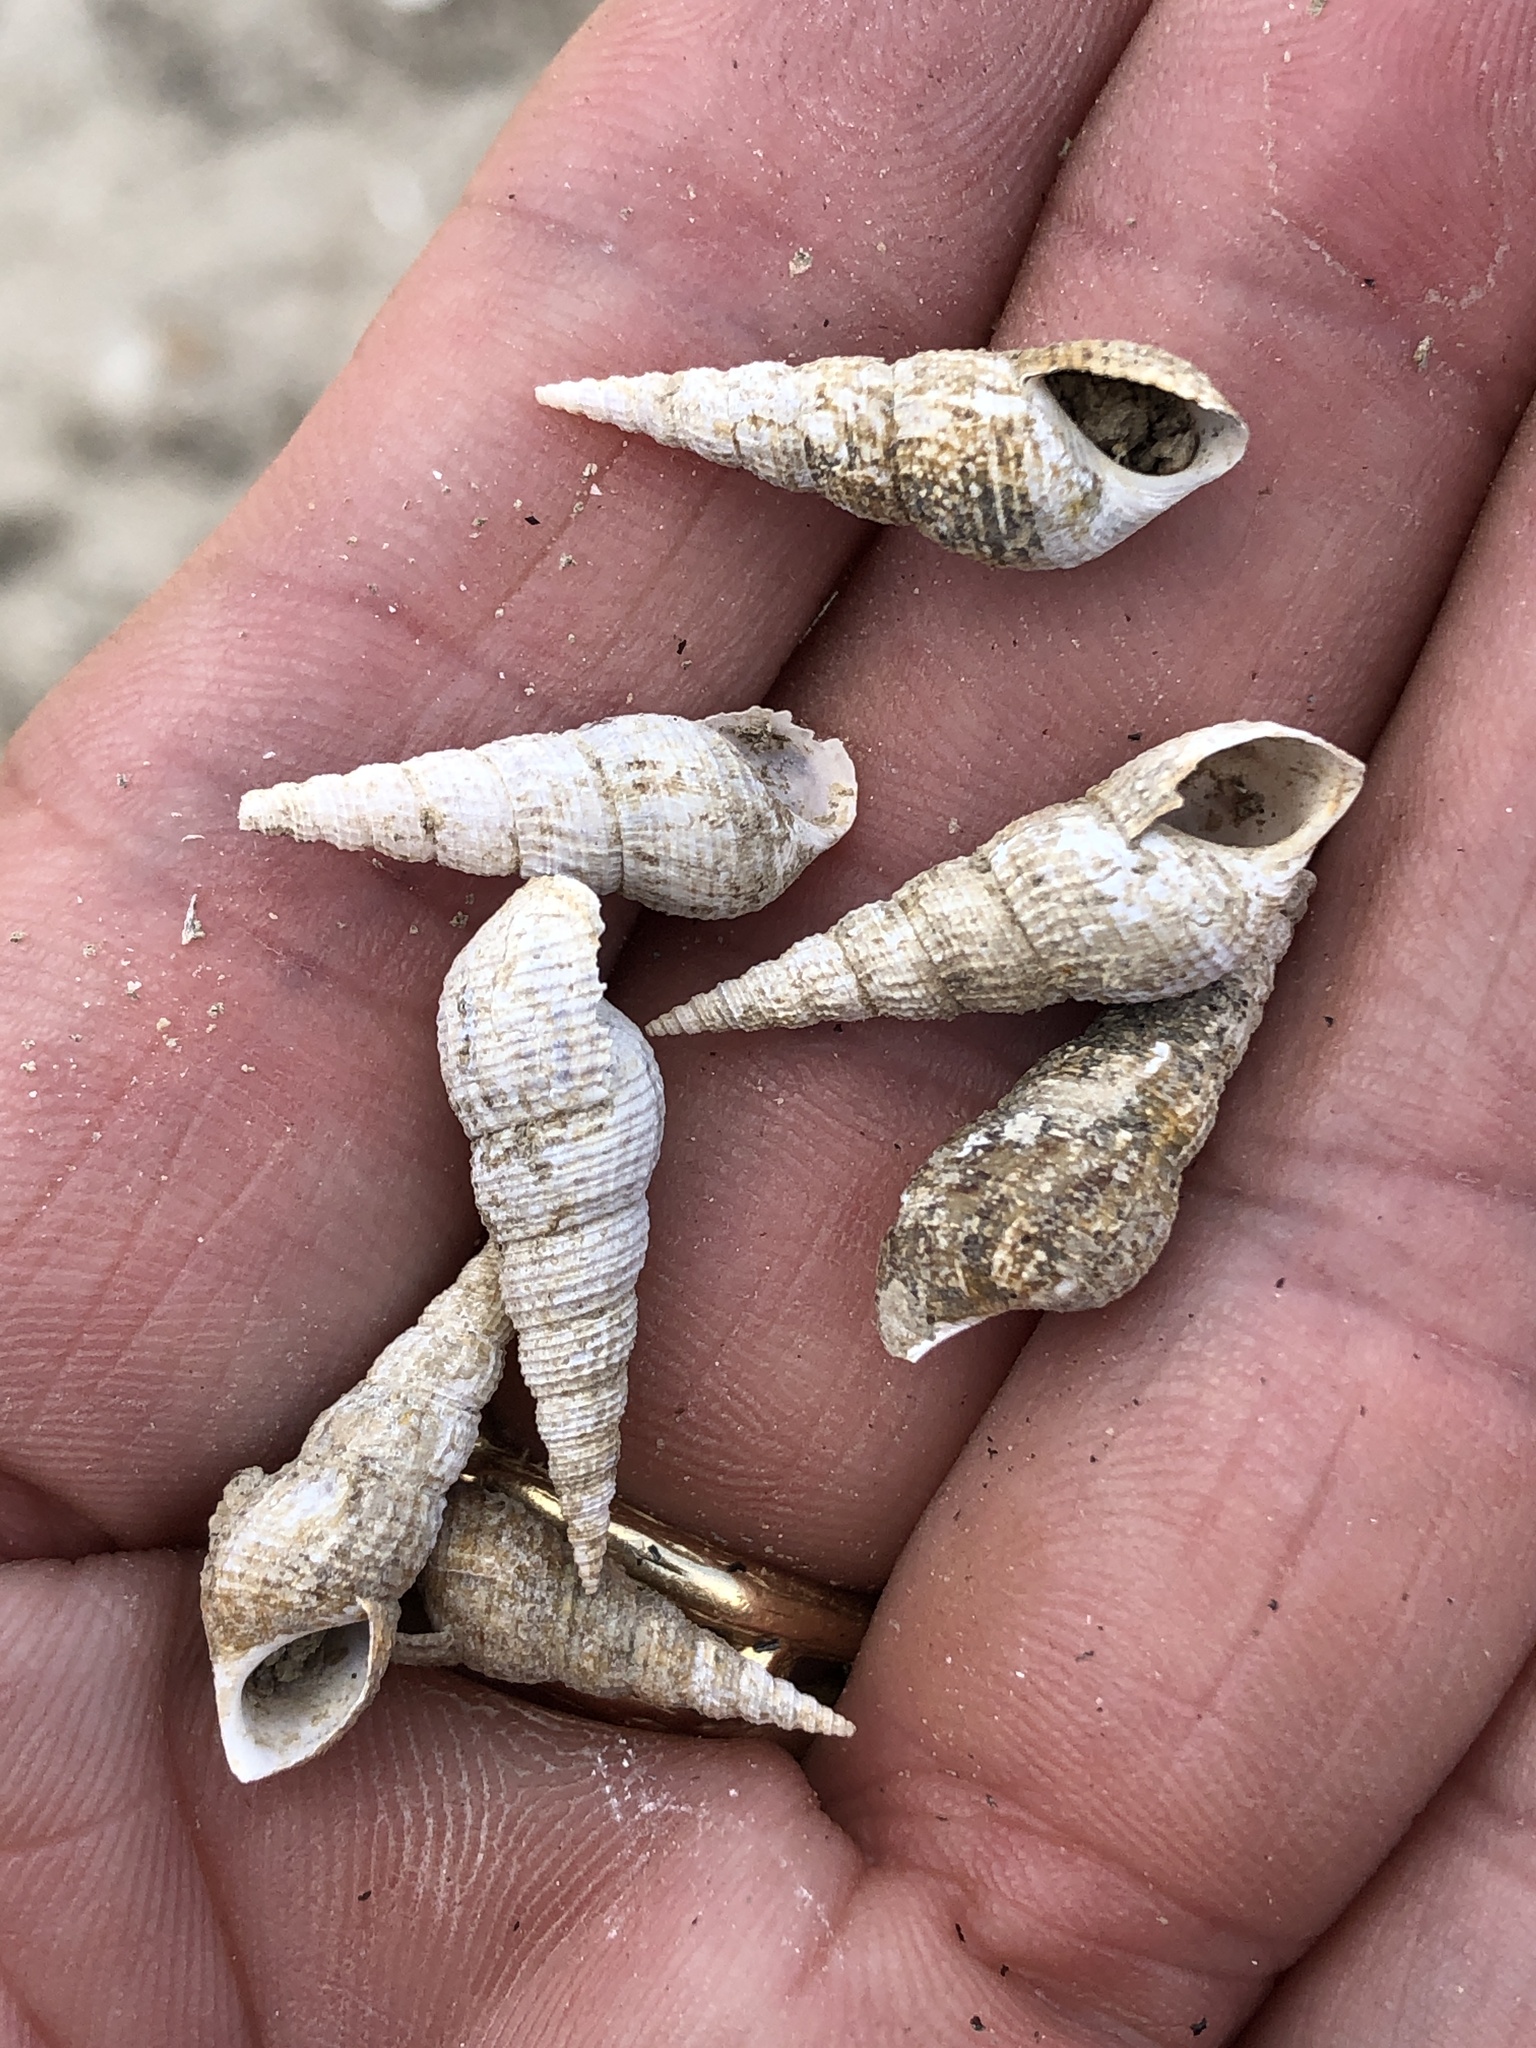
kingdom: Animalia
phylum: Mollusca
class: Gastropoda
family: Thiaridae
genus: Melanoides
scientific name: Melanoides tuberculata
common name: Red-rim melania
